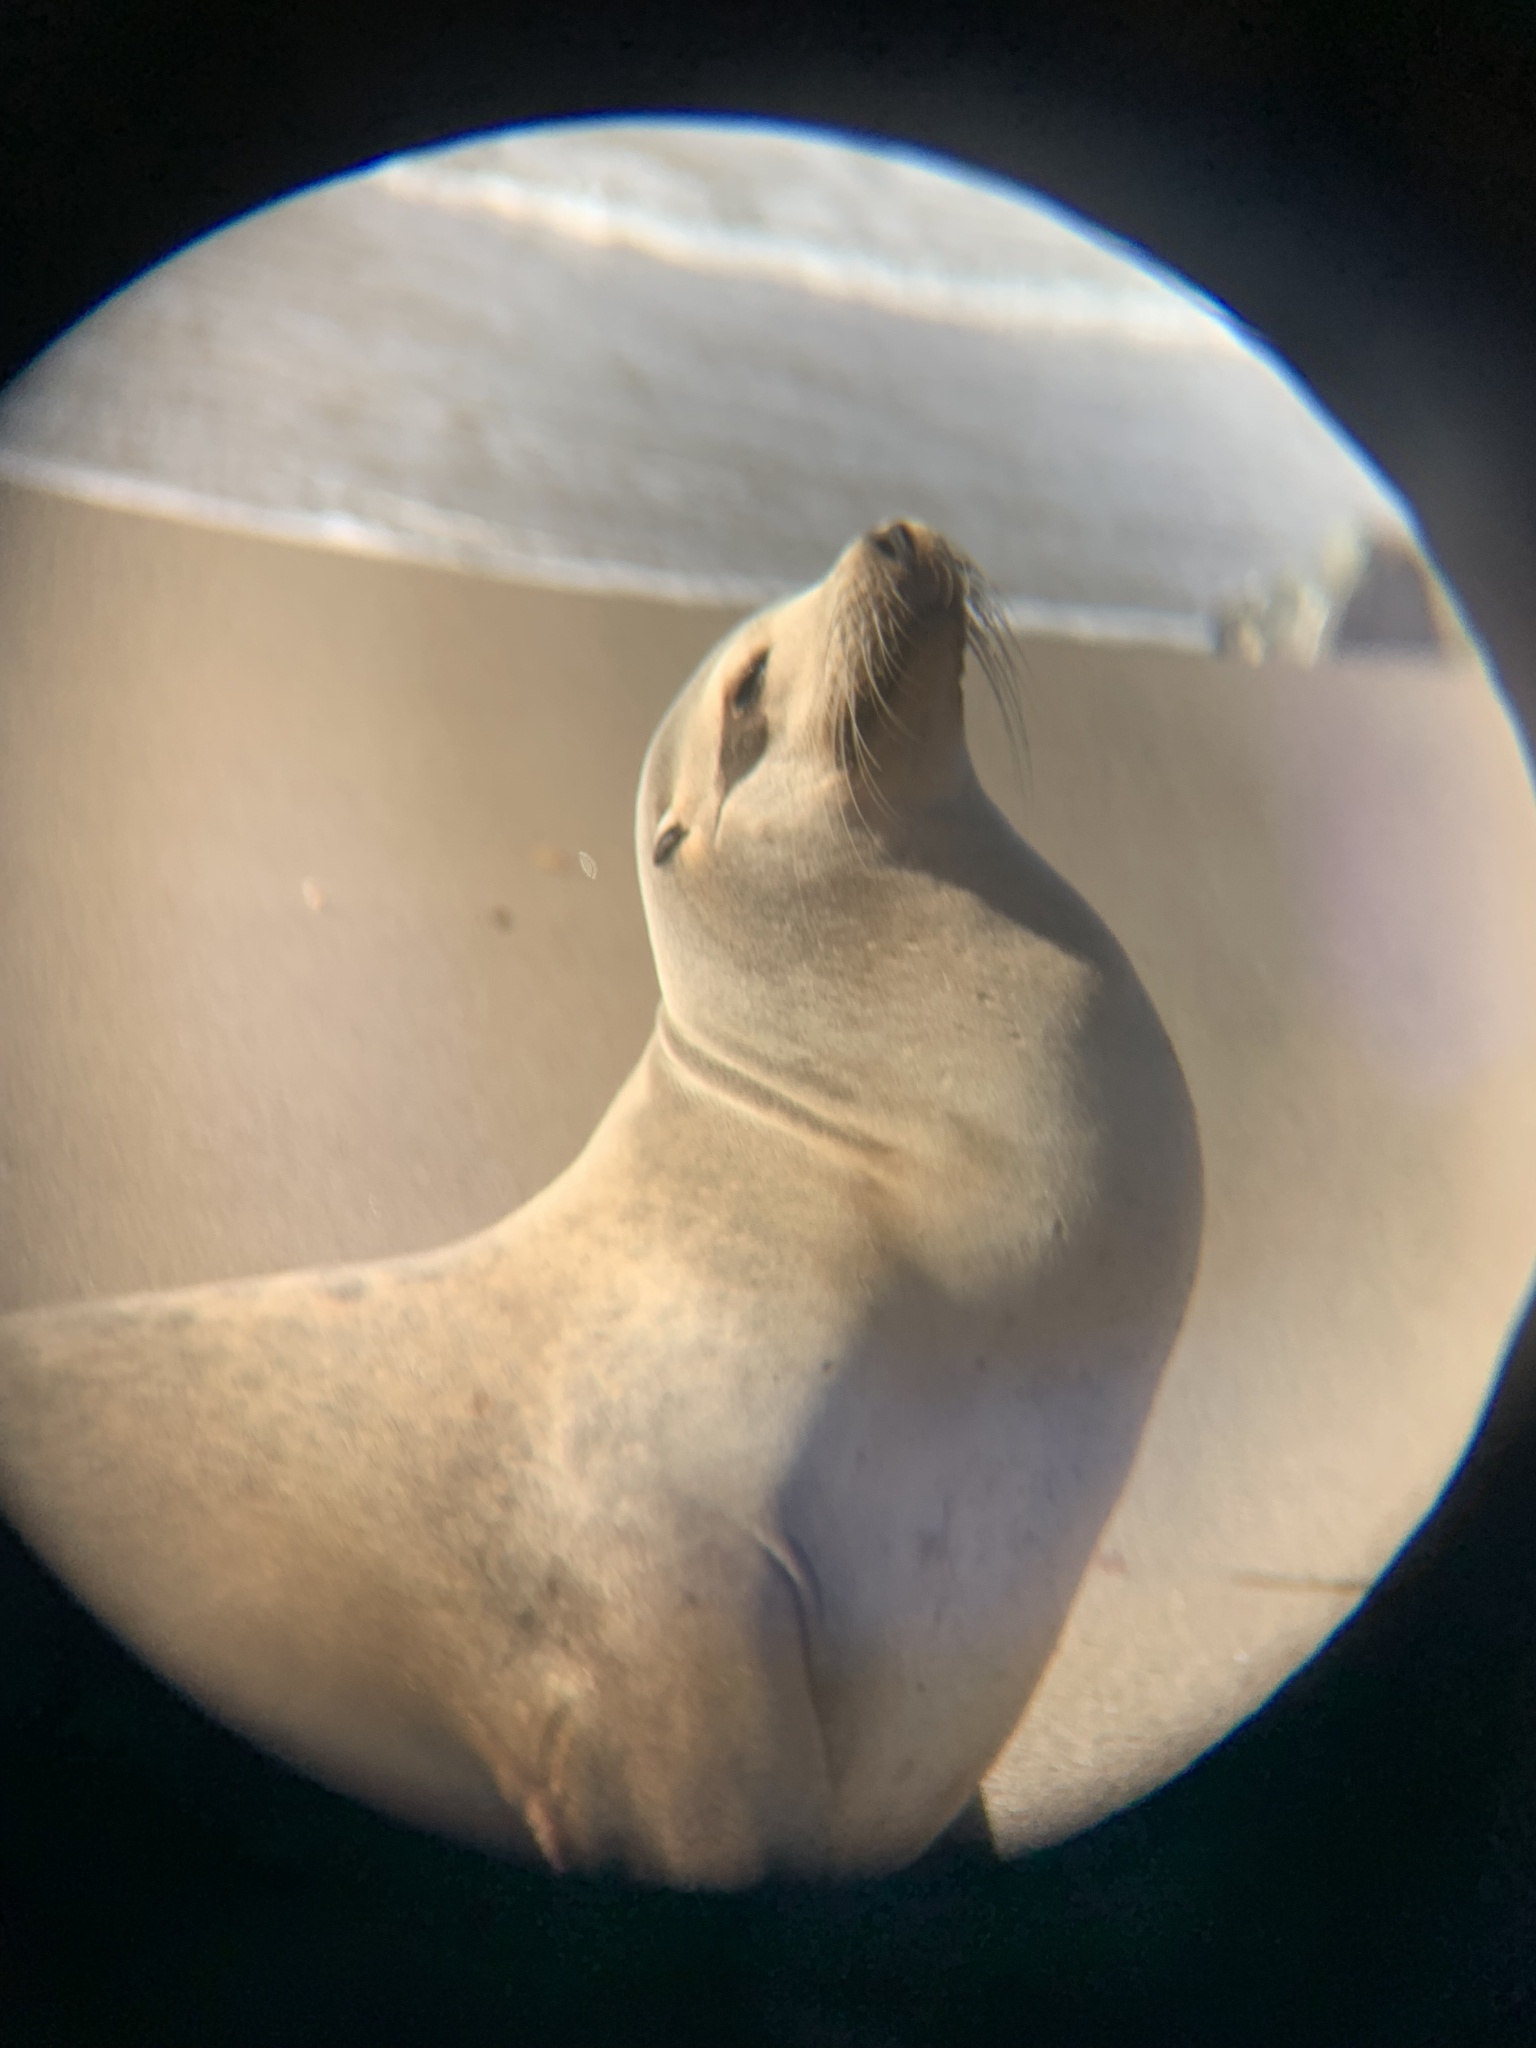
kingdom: Animalia
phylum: Chordata
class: Mammalia
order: Carnivora
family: Otariidae
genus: Zalophus
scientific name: Zalophus californianus
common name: California sea lion
